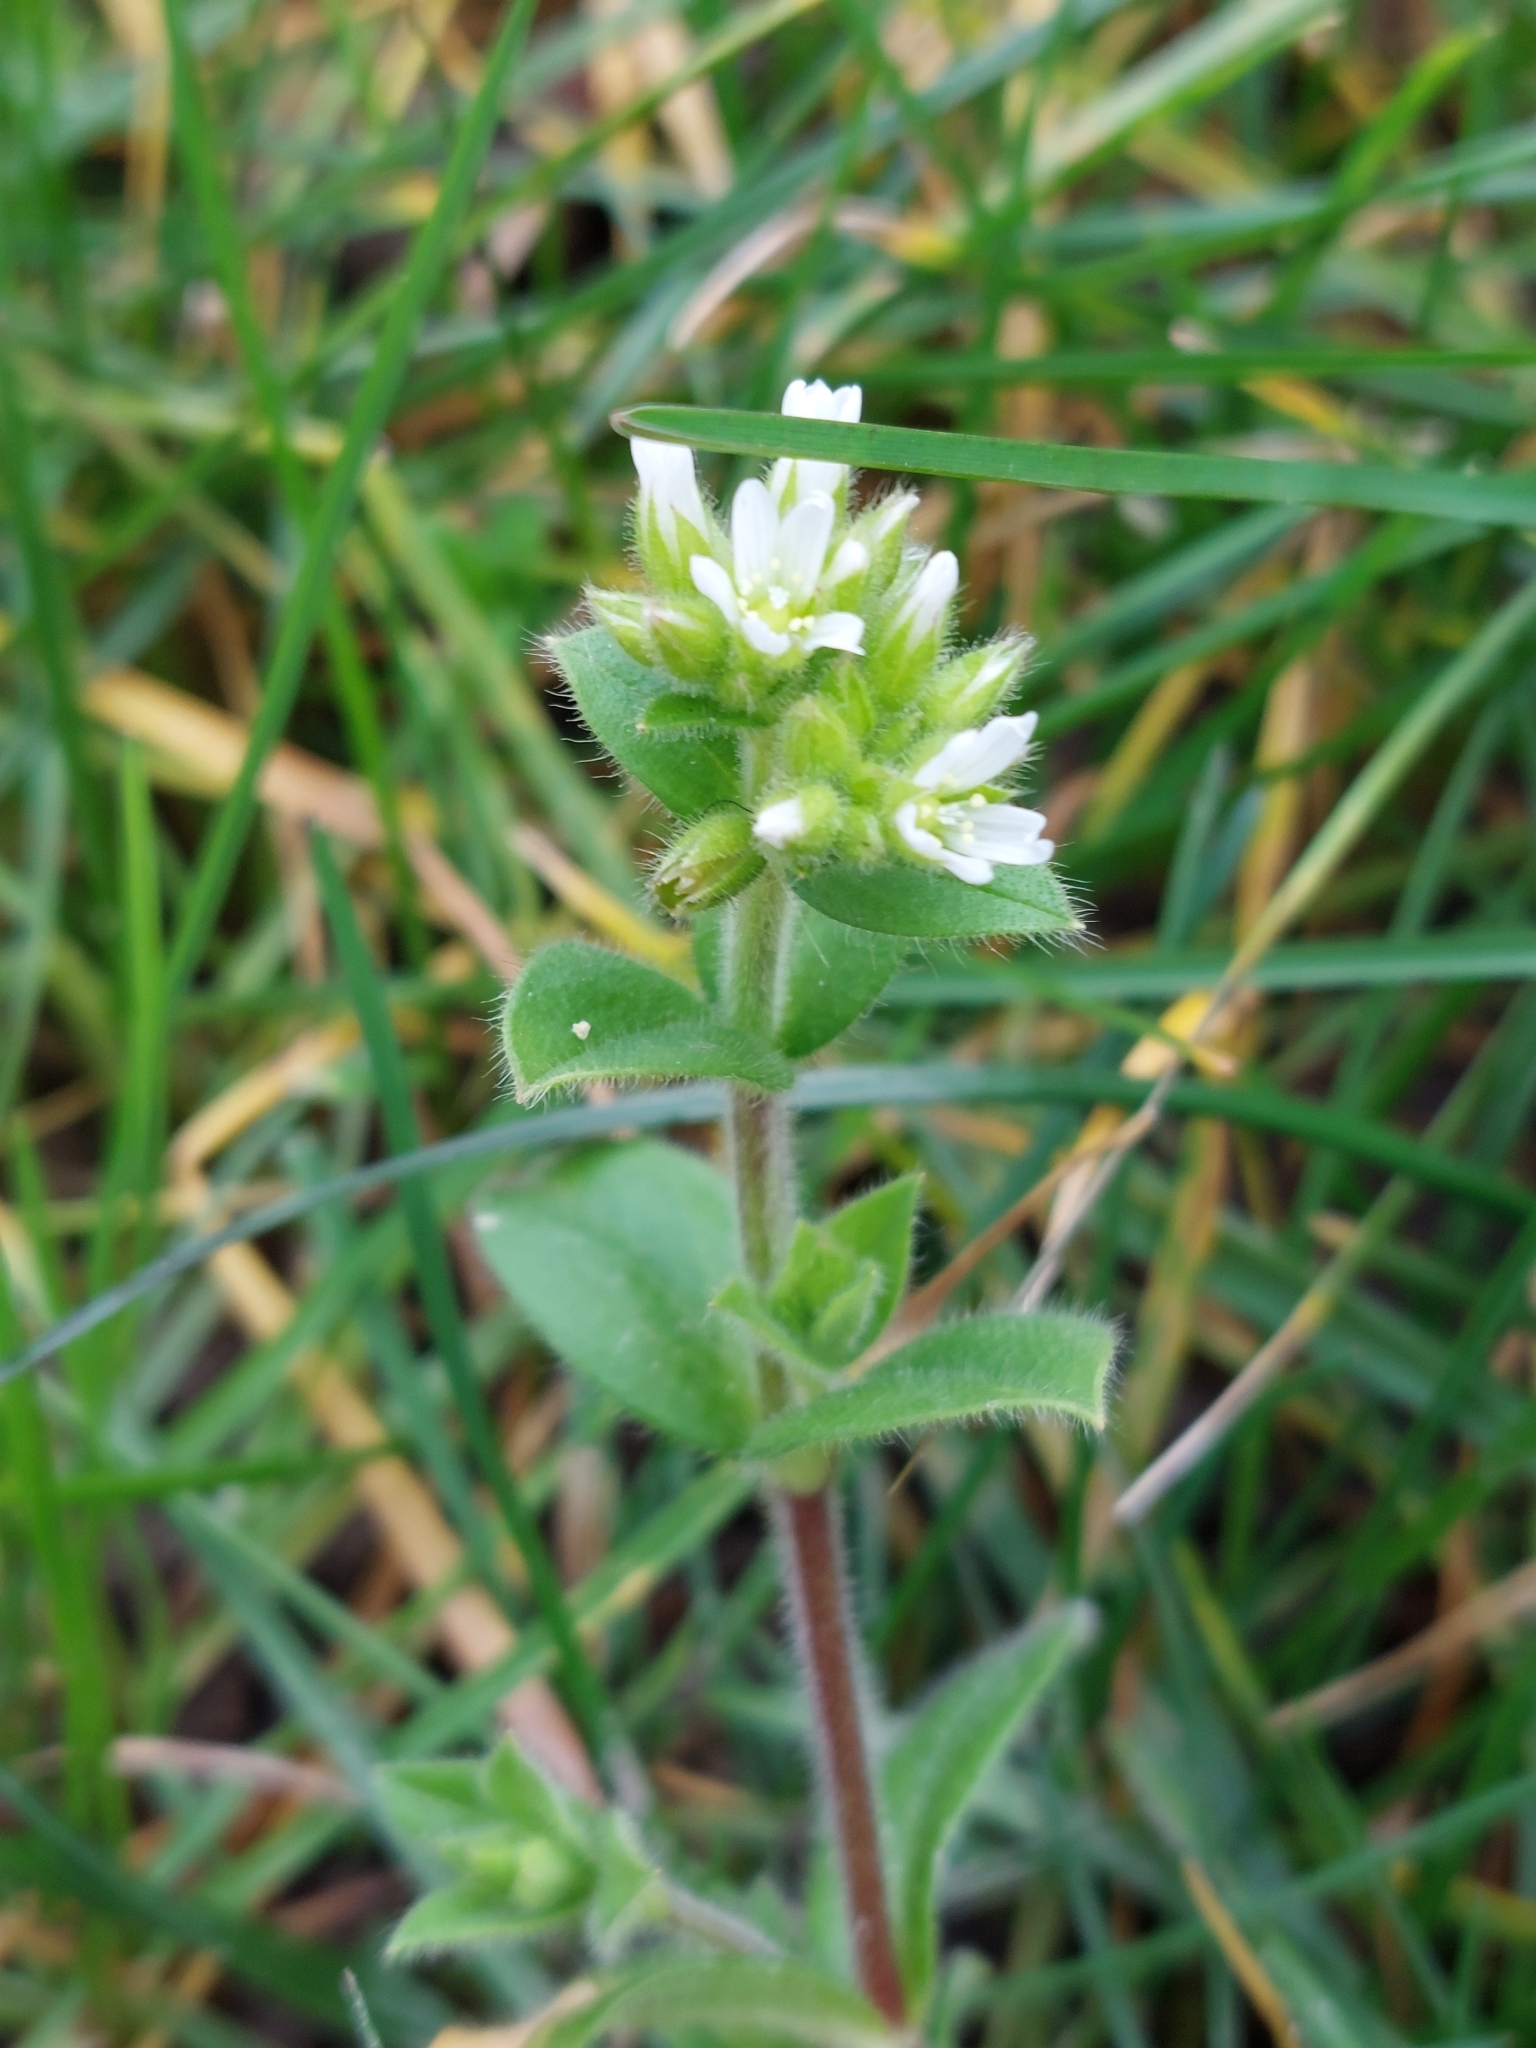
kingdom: Plantae
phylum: Tracheophyta
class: Magnoliopsida
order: Caryophyllales
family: Caryophyllaceae
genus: Cerastium
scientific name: Cerastium glomeratum
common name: Sticky chickweed
